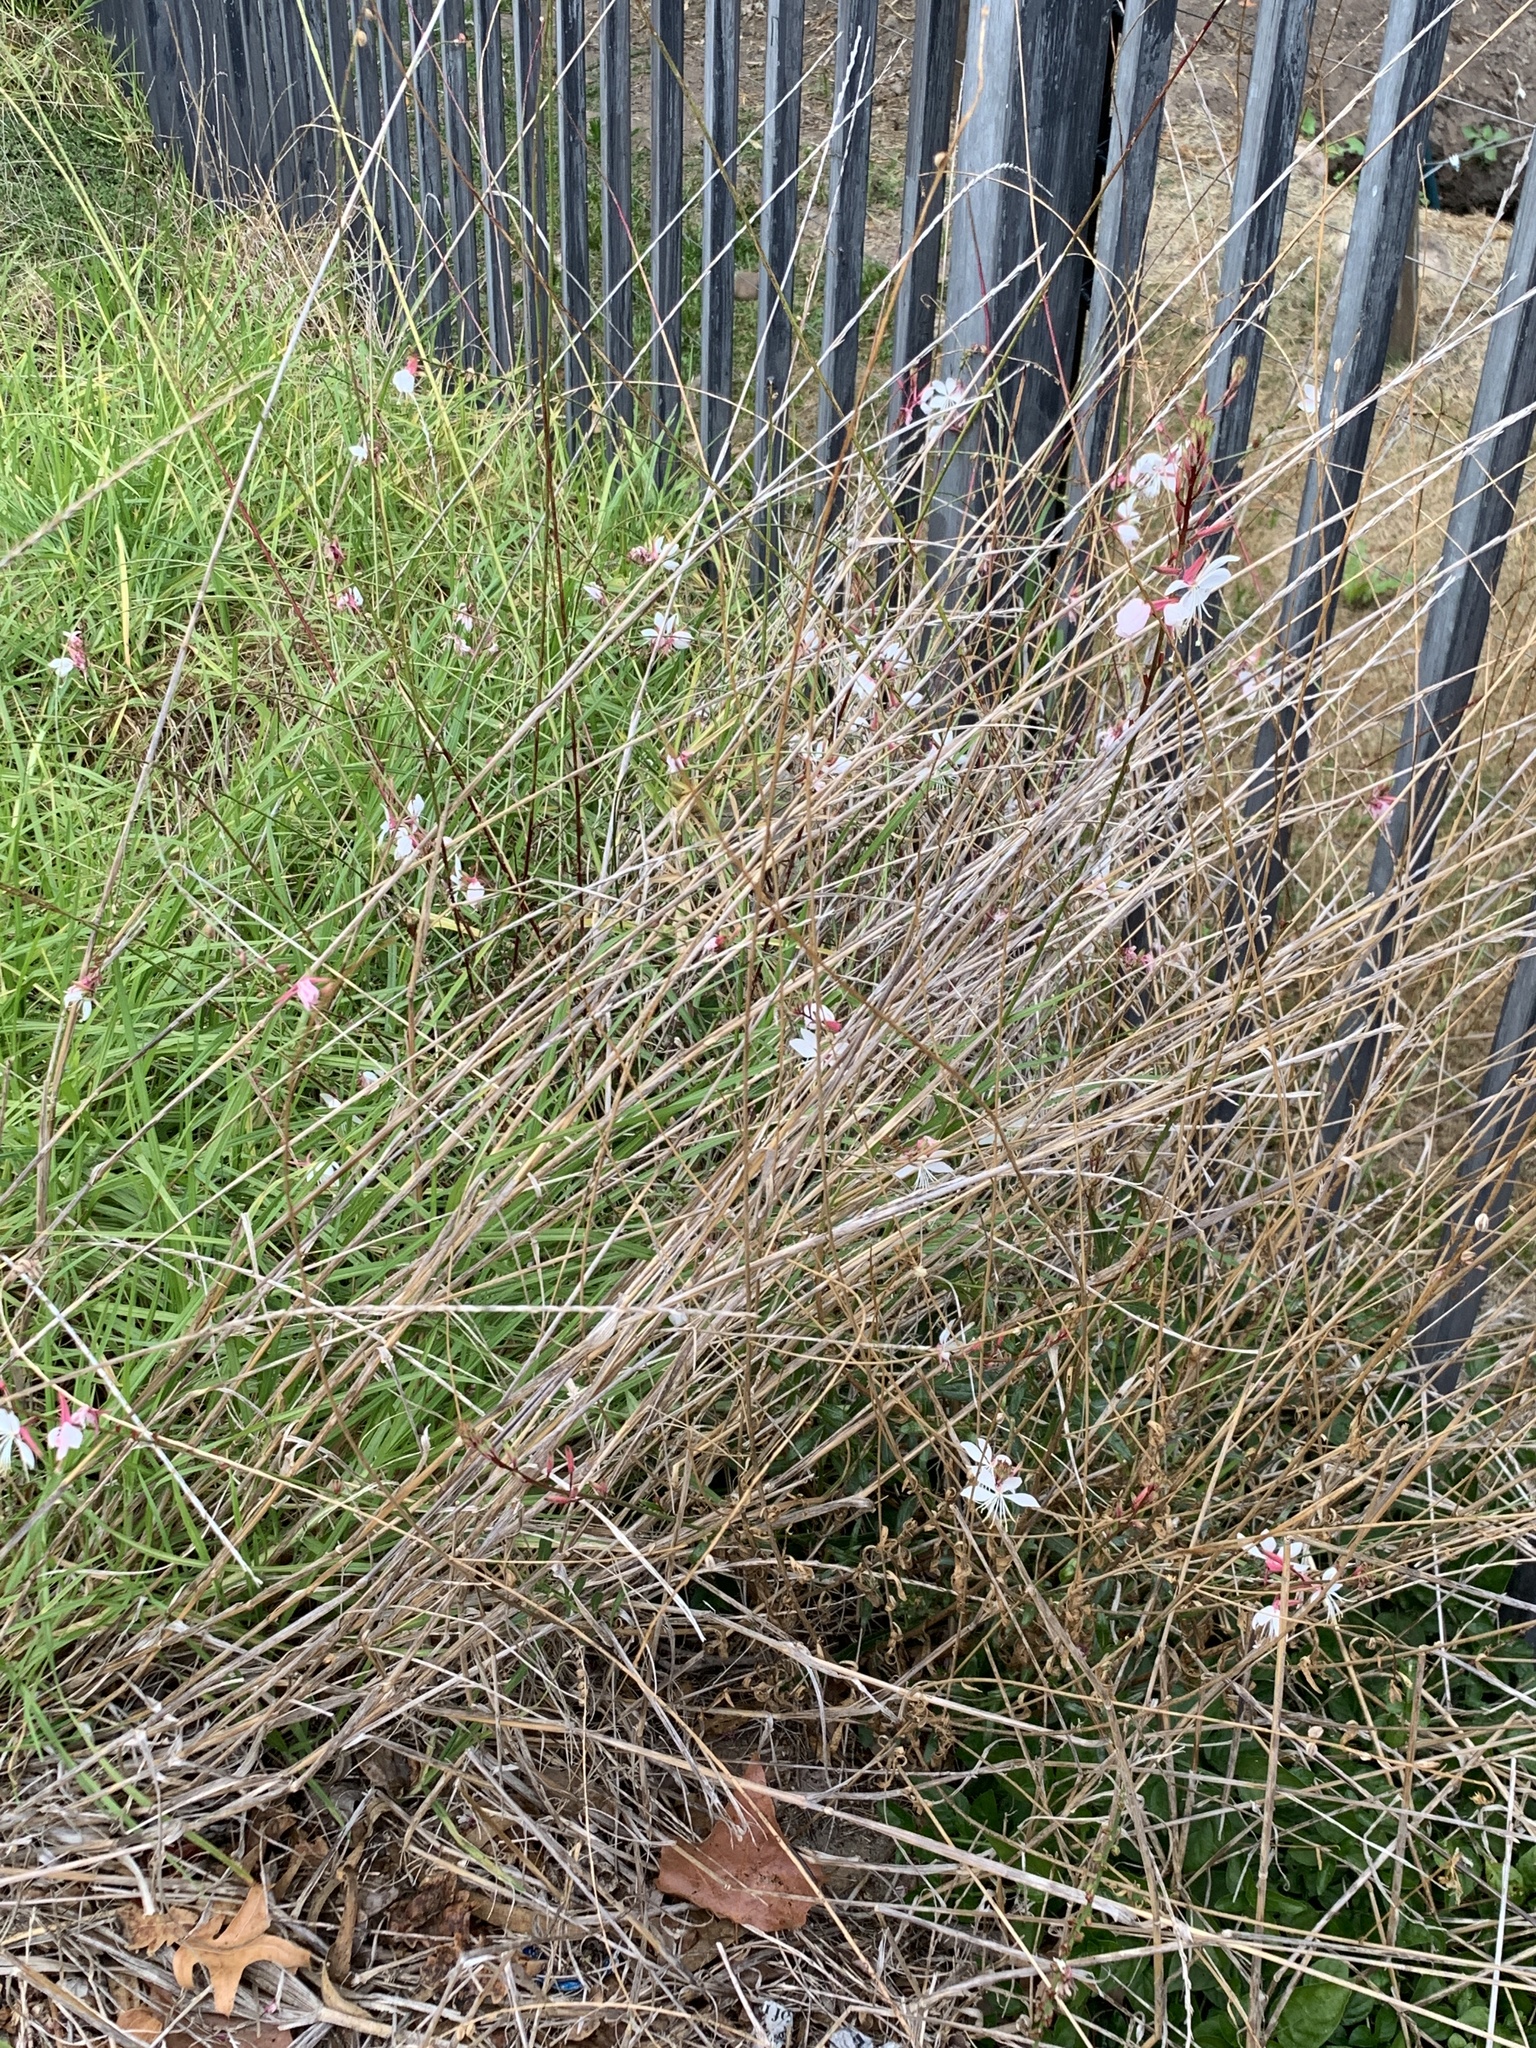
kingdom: Plantae
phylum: Tracheophyta
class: Magnoliopsida
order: Myrtales
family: Onagraceae
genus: Oenothera
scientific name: Oenothera lindheimeri
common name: Lindheimer's beeblossom
